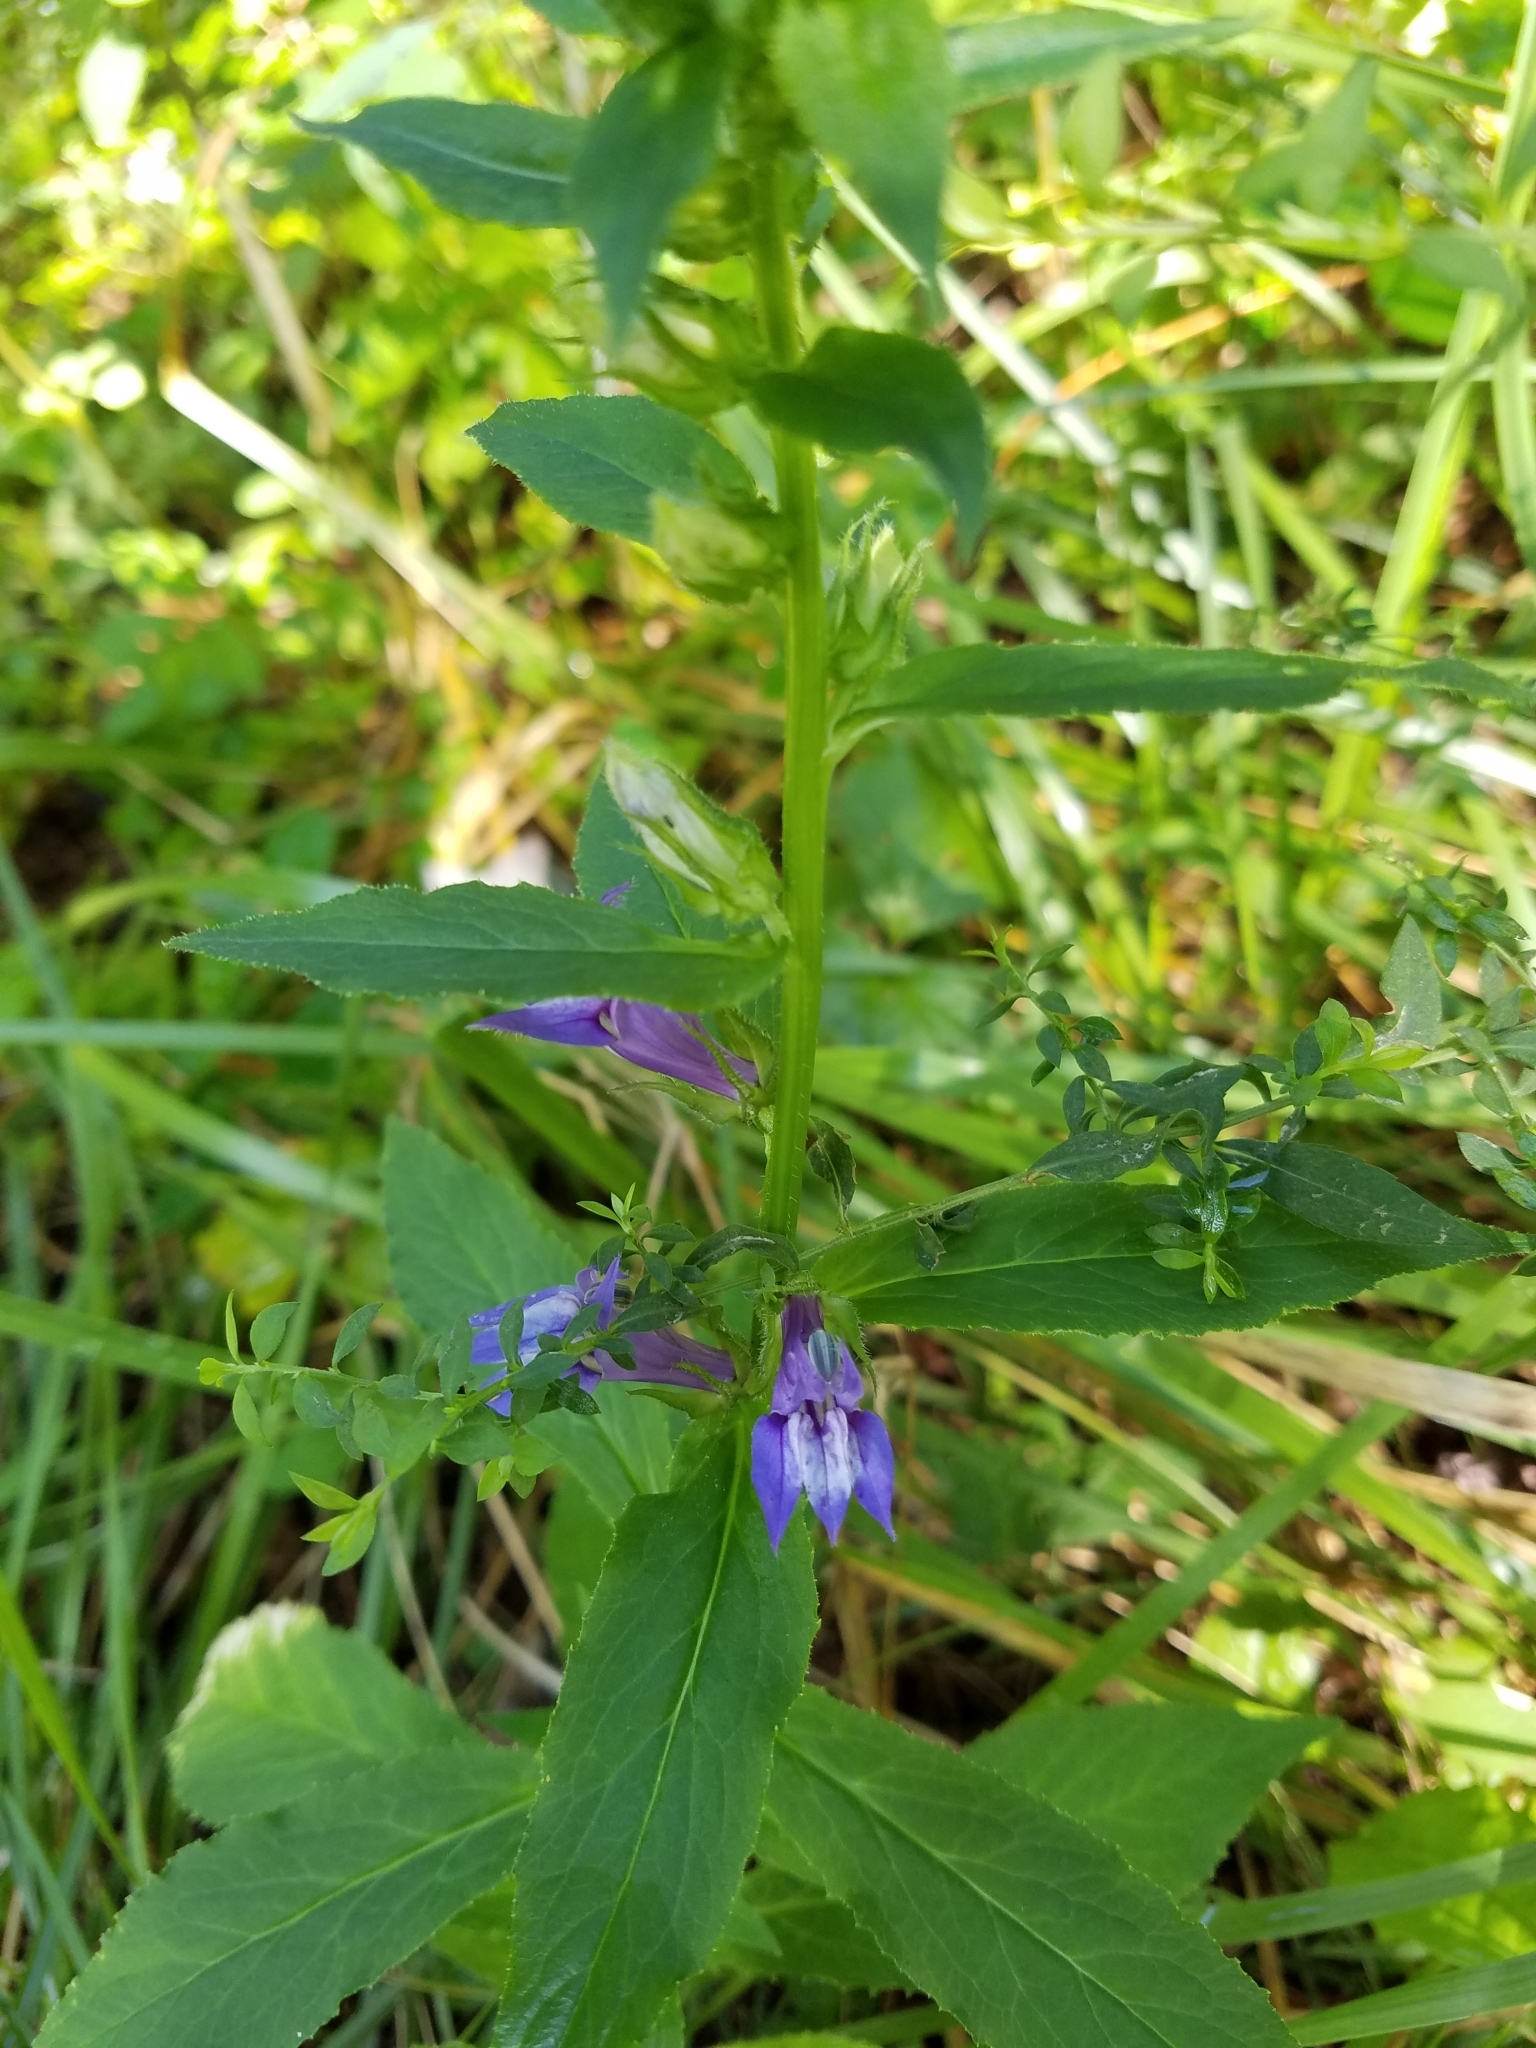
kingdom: Plantae
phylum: Tracheophyta
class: Magnoliopsida
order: Asterales
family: Campanulaceae
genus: Lobelia
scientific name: Lobelia siphilitica
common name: Great lobelia
